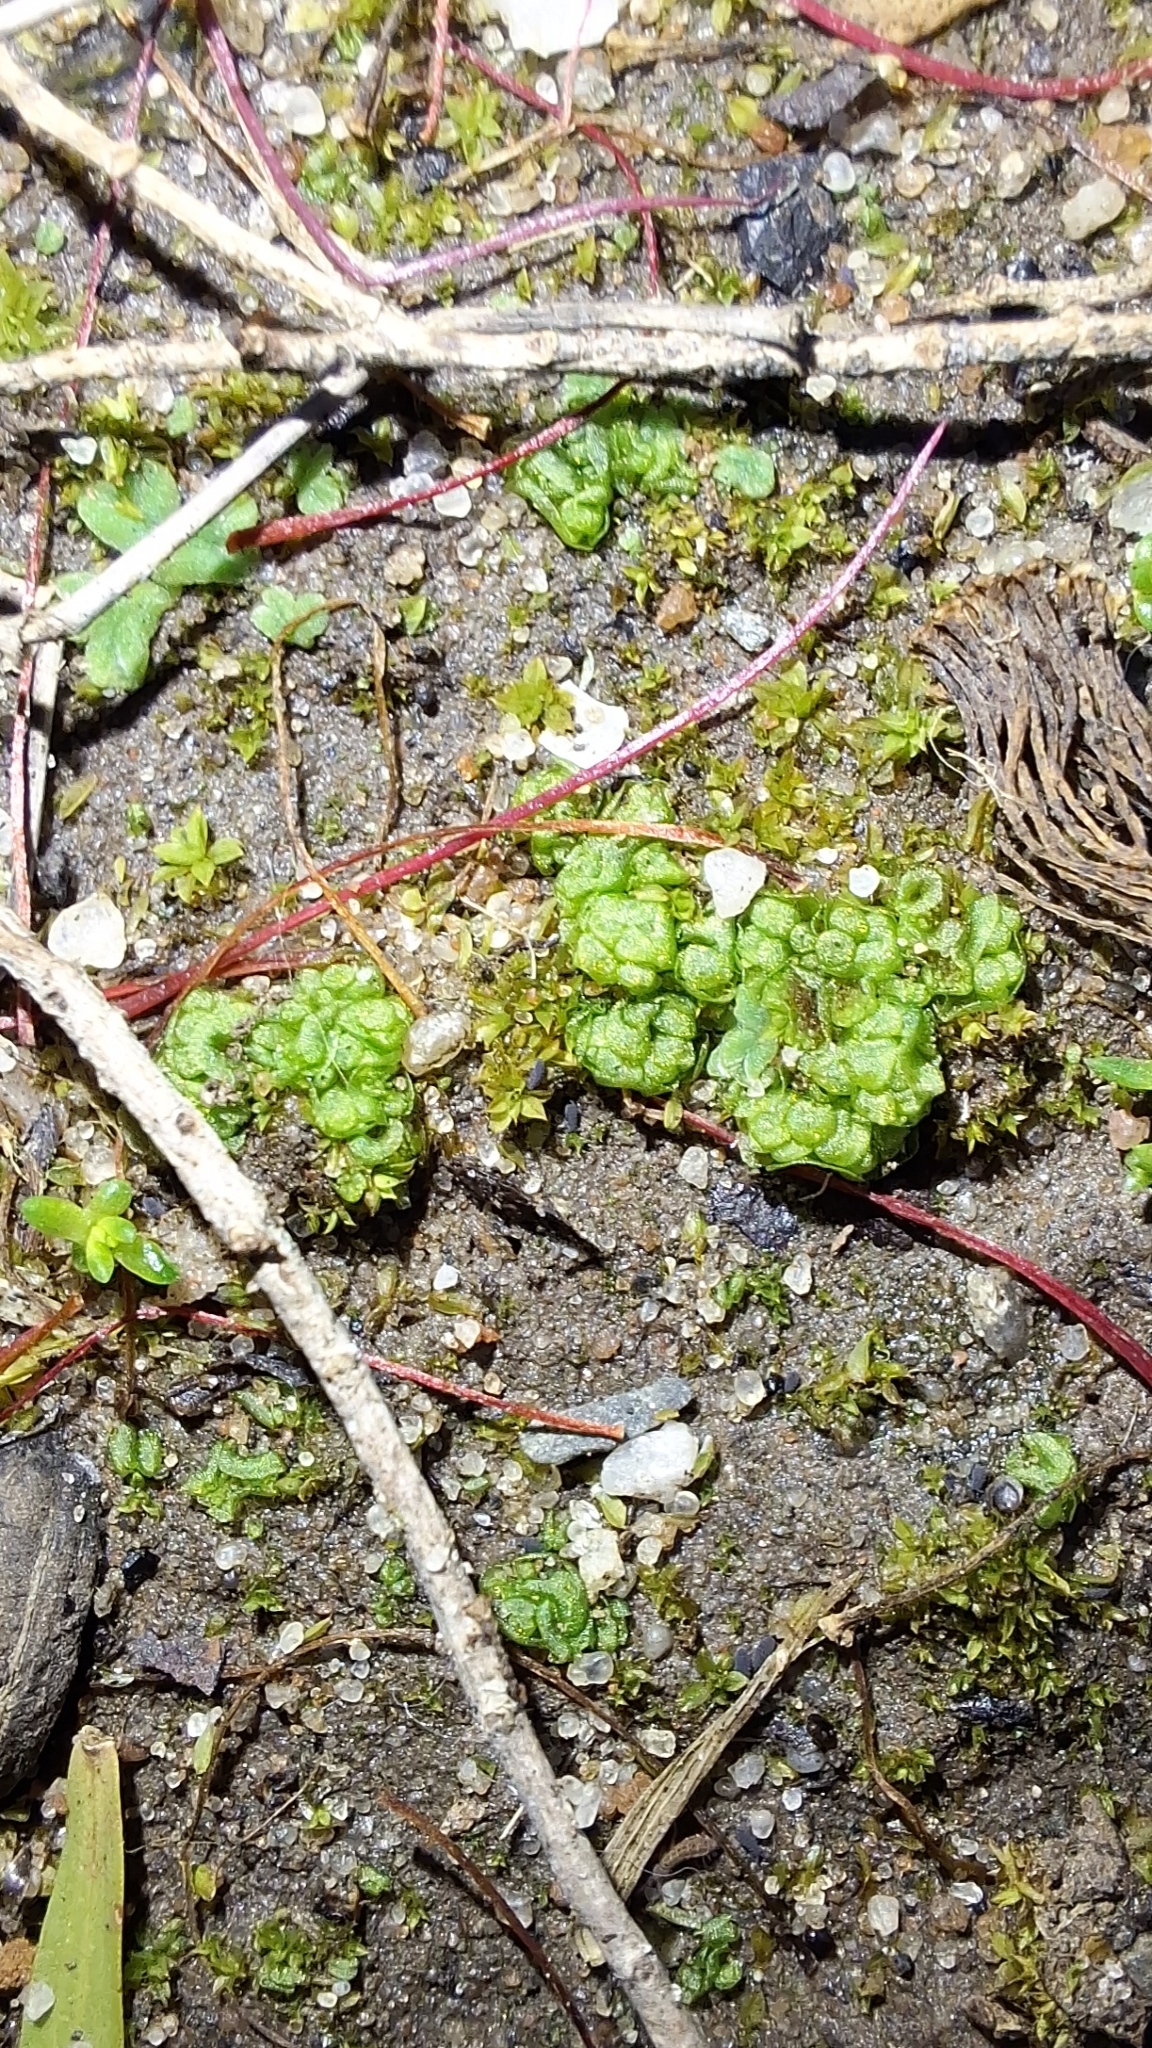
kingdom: Plantae
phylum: Marchantiophyta
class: Marchantiopsida
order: Sphaerocarpales
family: Sphaerocarpaceae
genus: Sphaerocarpos
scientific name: Sphaerocarpos texanus
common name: Texas balloonwort
